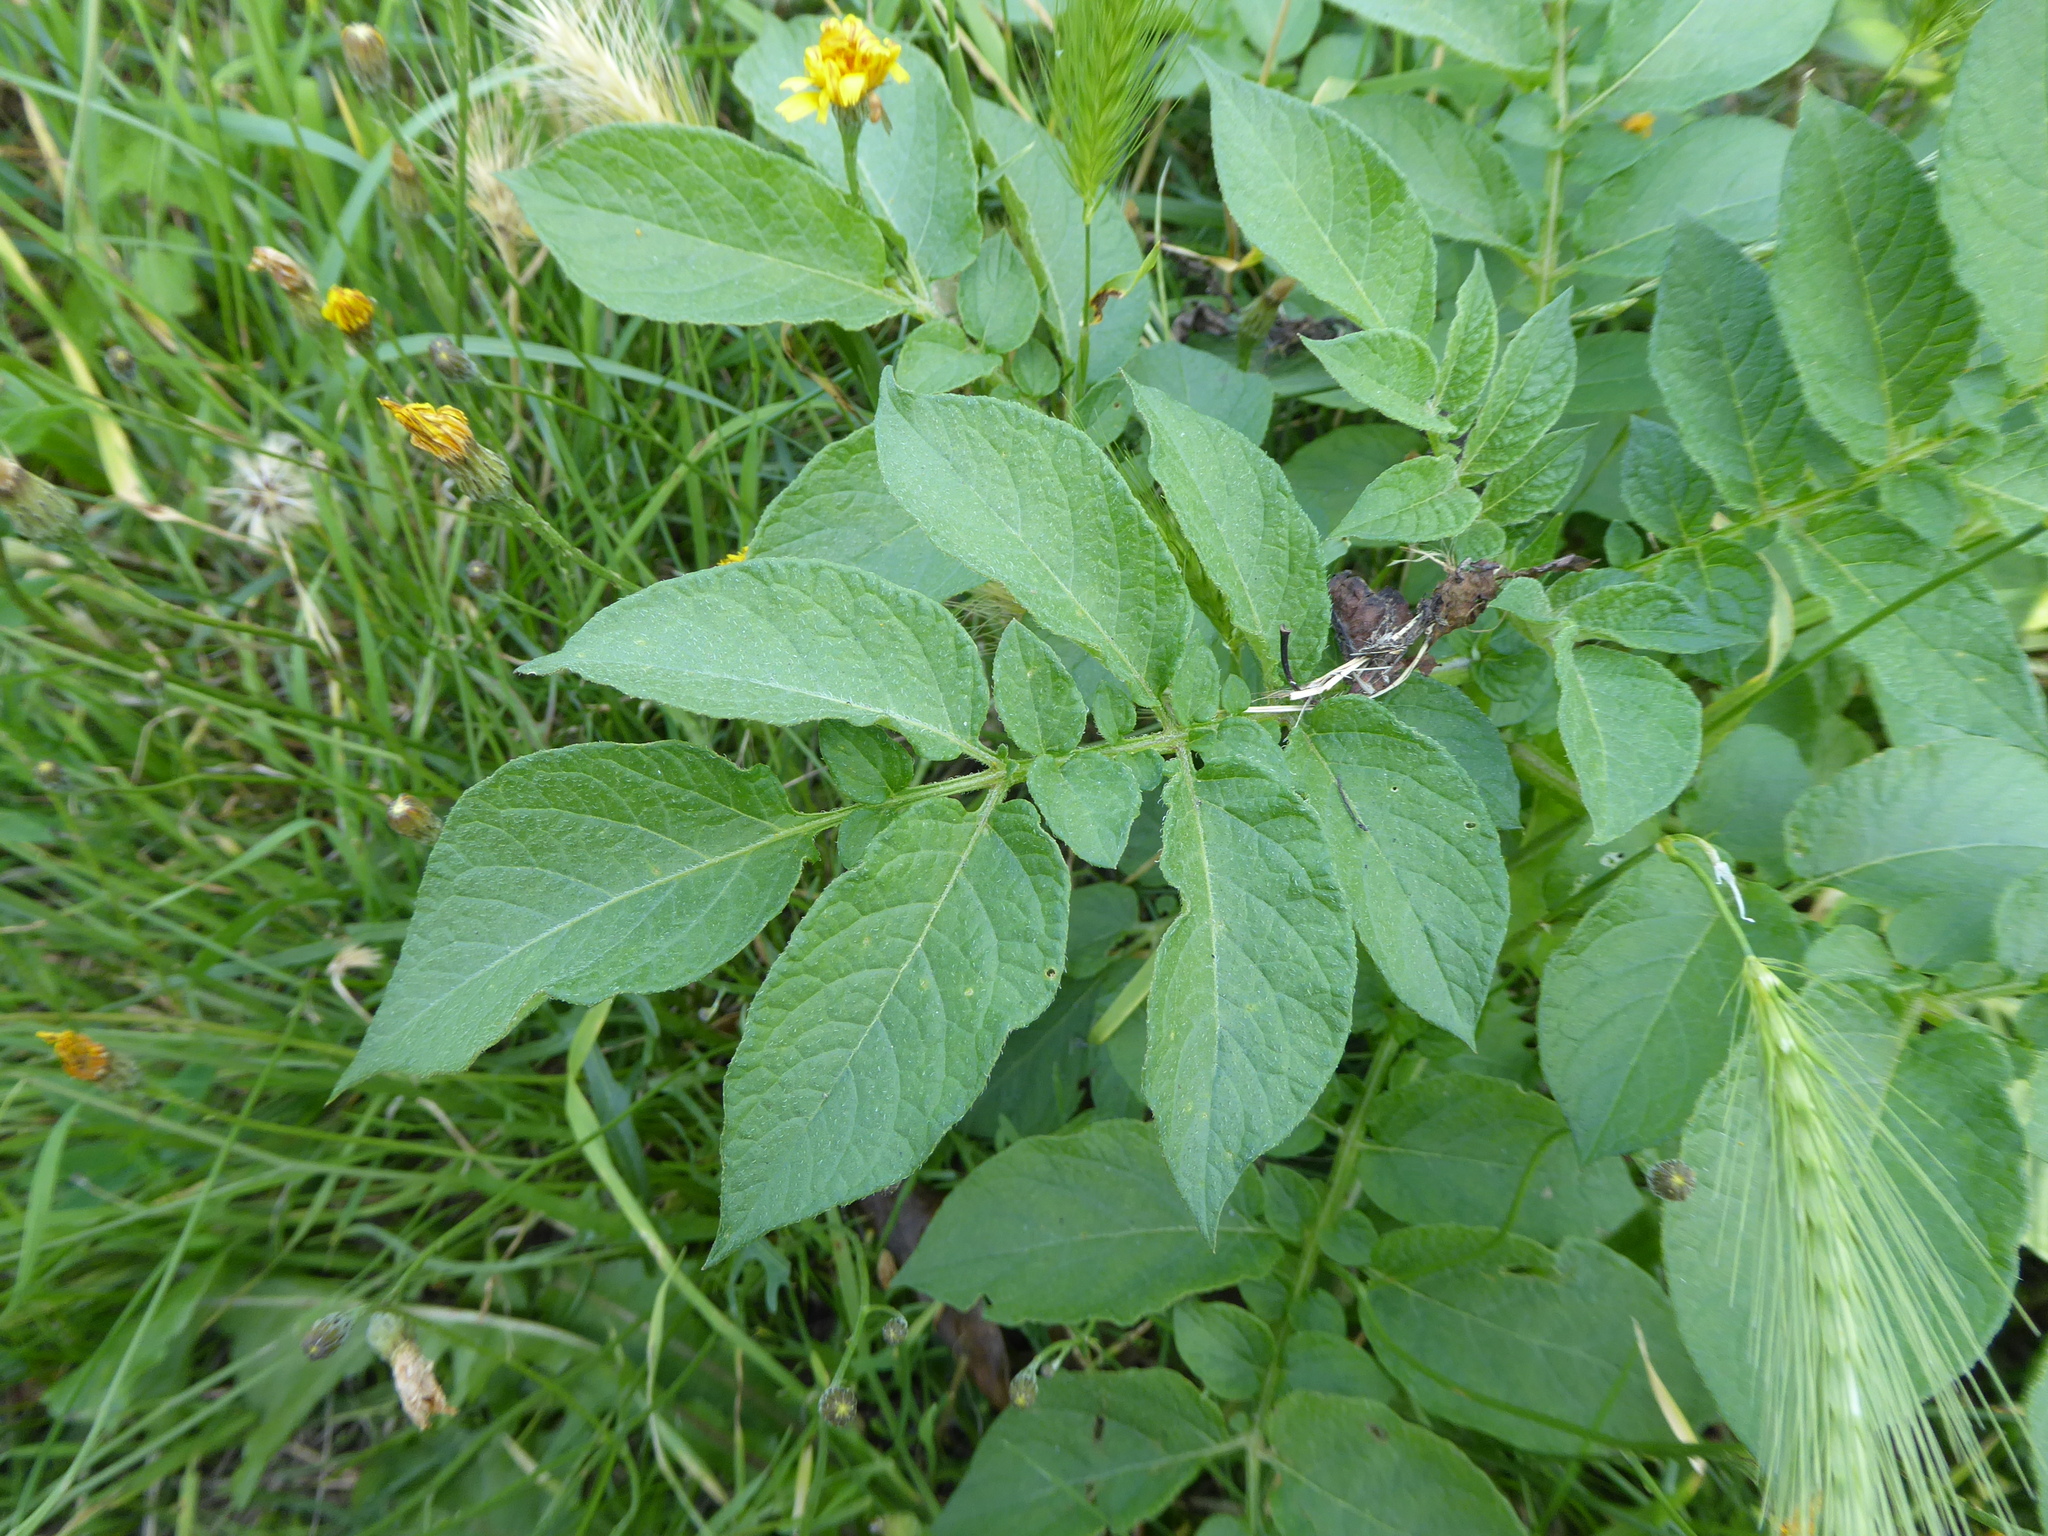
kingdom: Plantae
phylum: Tracheophyta
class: Magnoliopsida
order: Solanales
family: Solanaceae
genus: Solanum
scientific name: Solanum tuberosum
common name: Potato
